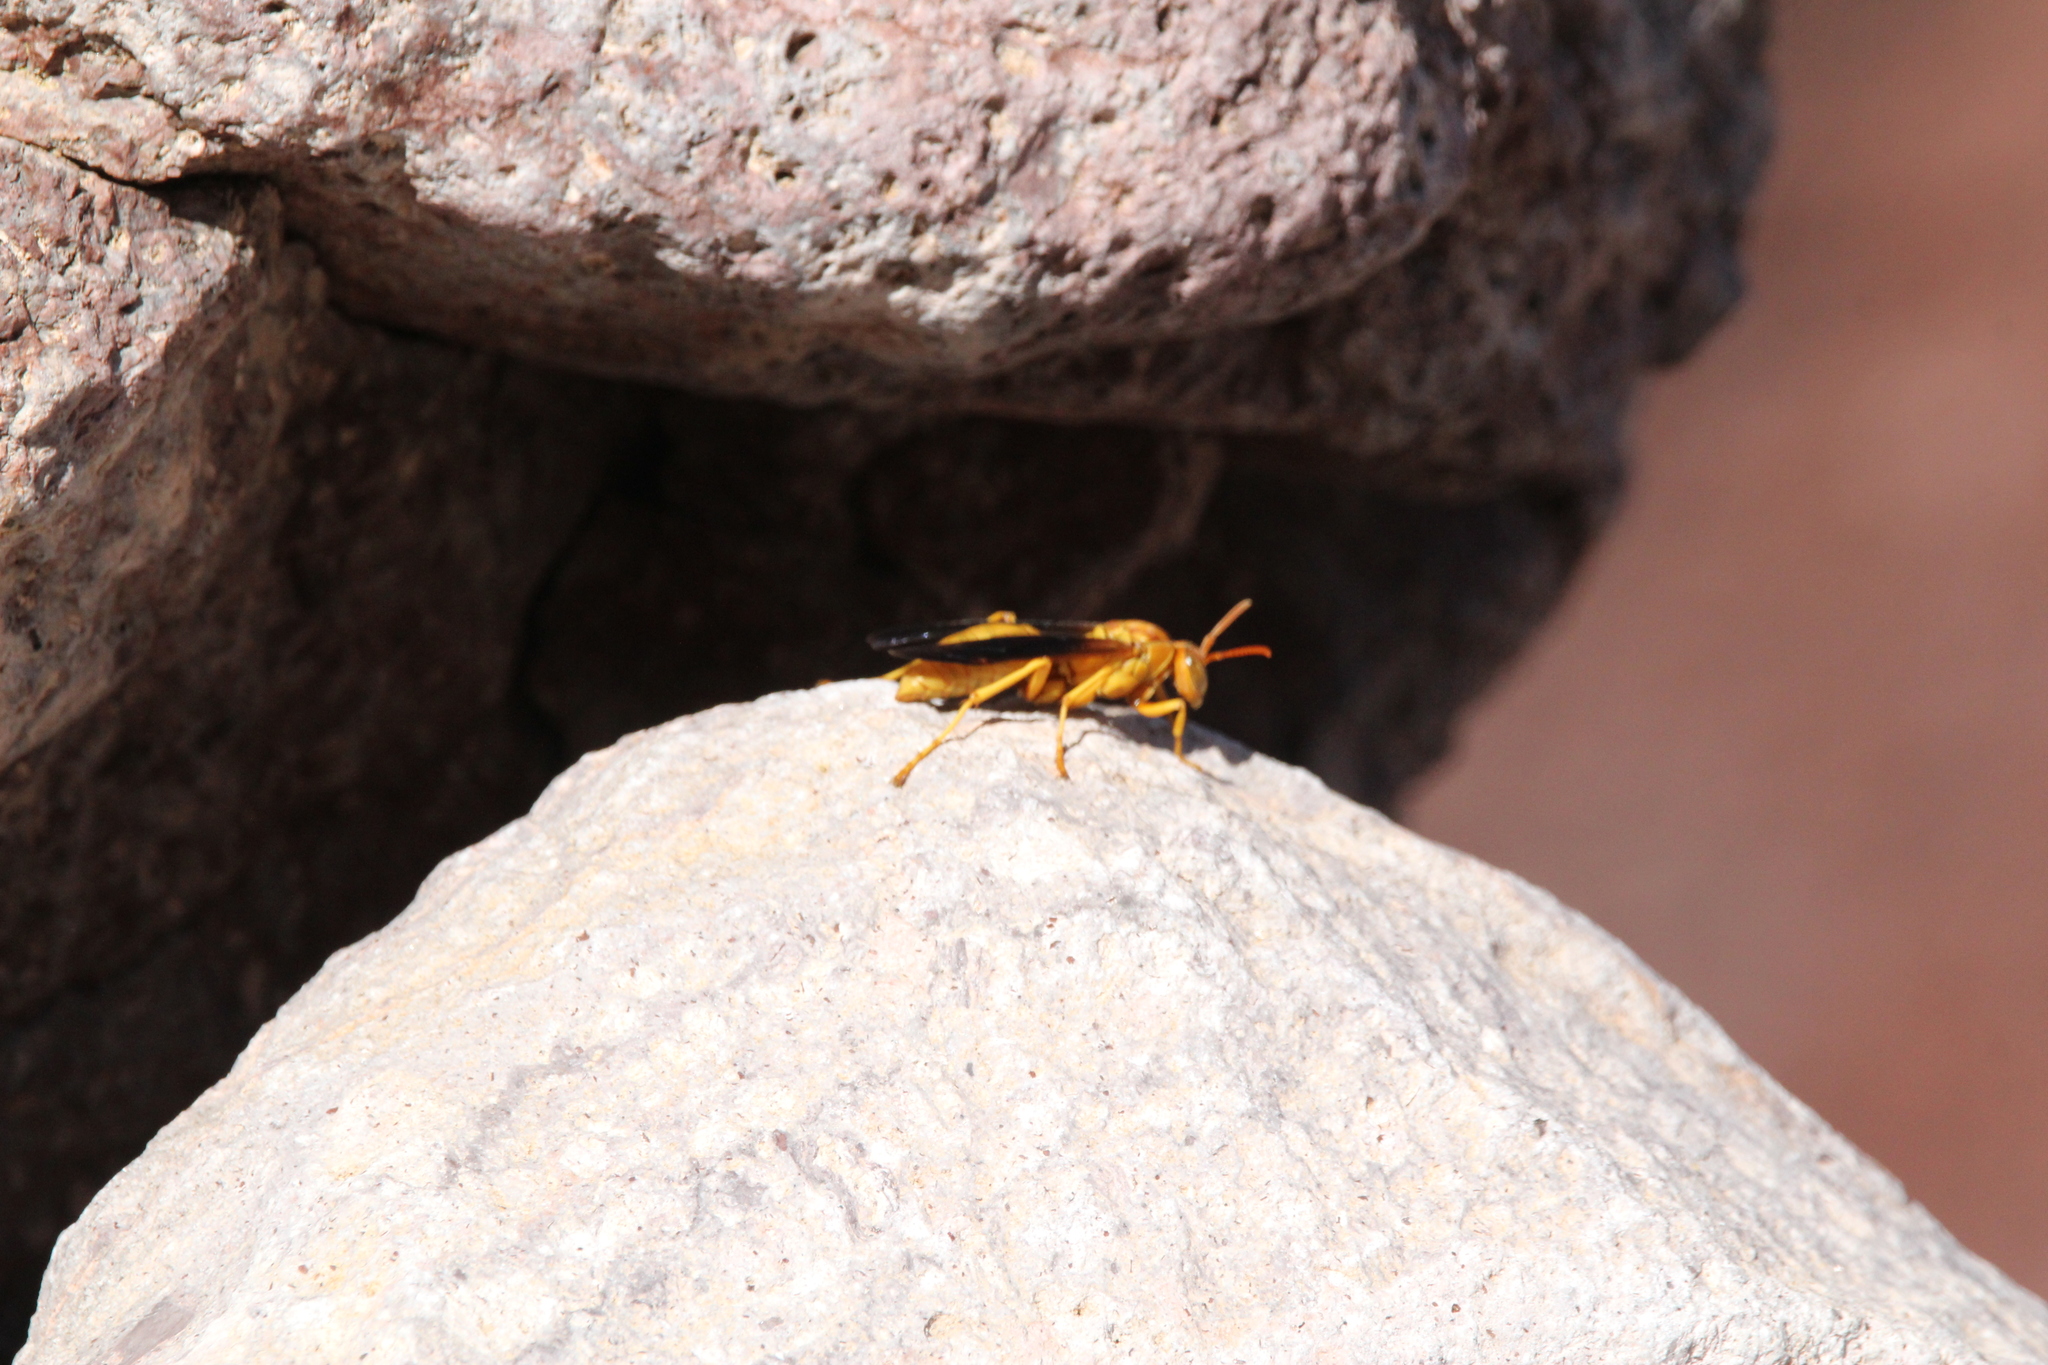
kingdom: Animalia
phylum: Arthropoda
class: Insecta
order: Hymenoptera
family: Eumenidae
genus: Polistes
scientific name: Polistes flavus
